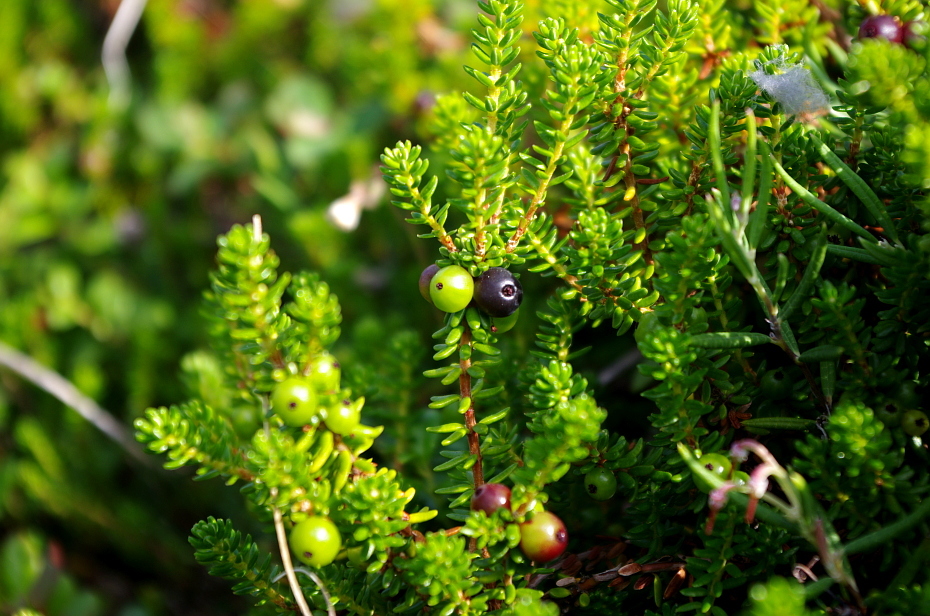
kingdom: Plantae
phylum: Tracheophyta
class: Magnoliopsida
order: Ericales
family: Ericaceae
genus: Empetrum
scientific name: Empetrum nigrum
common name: Black crowberry
